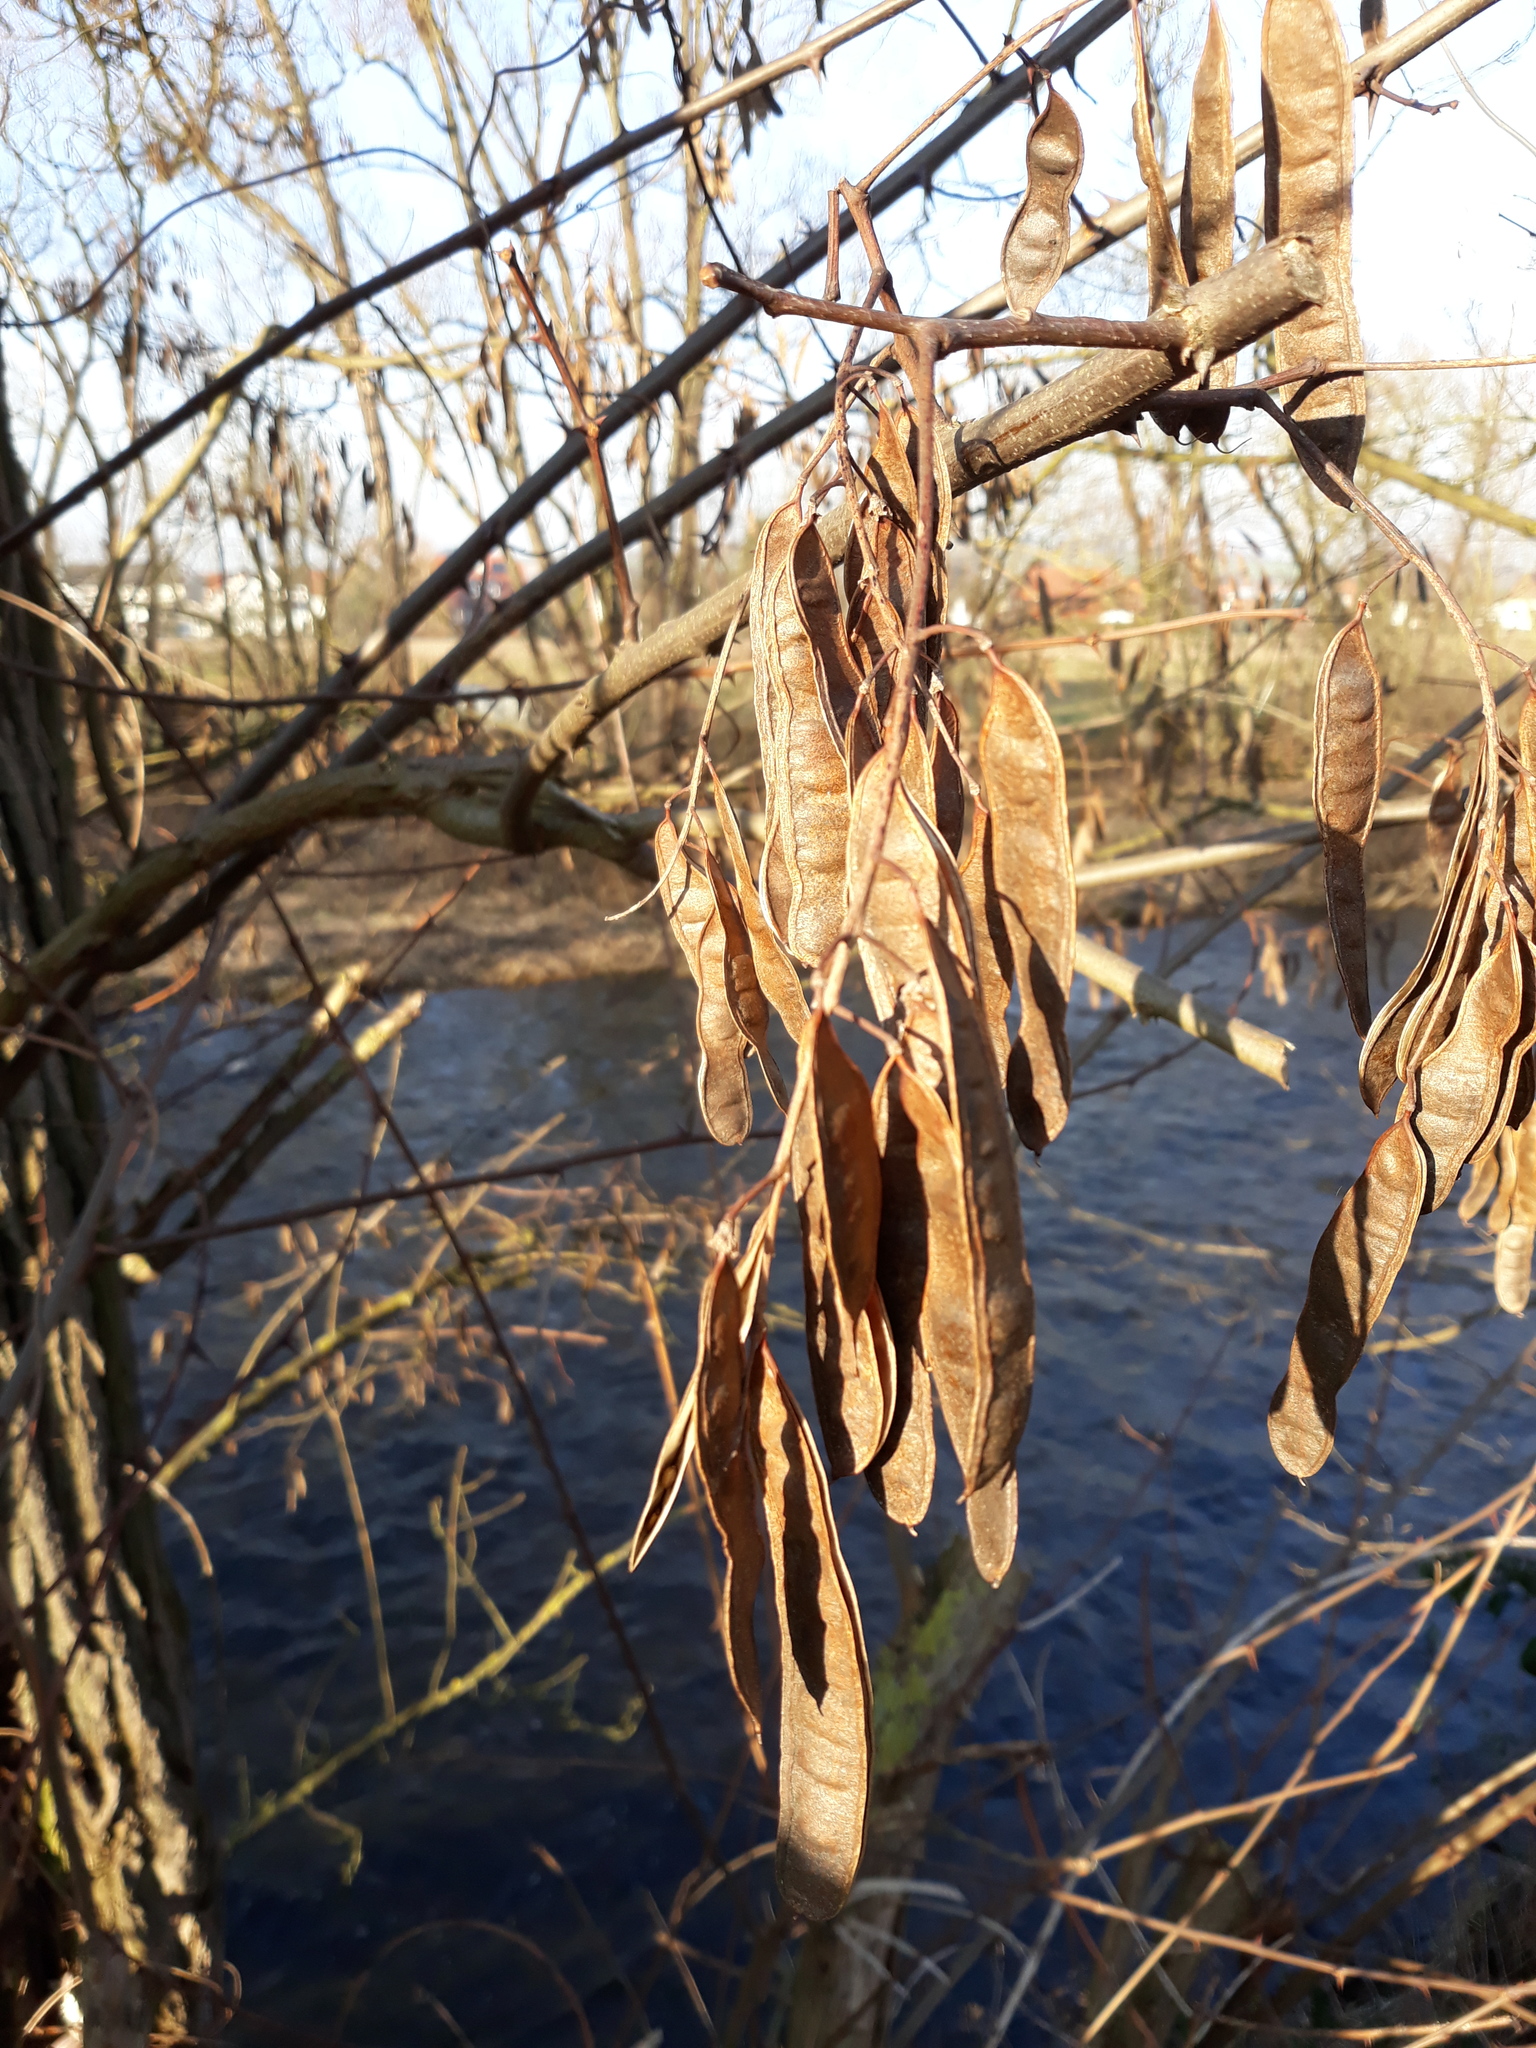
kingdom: Plantae
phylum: Tracheophyta
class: Magnoliopsida
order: Fabales
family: Fabaceae
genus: Robinia
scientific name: Robinia pseudoacacia
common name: Black locust
